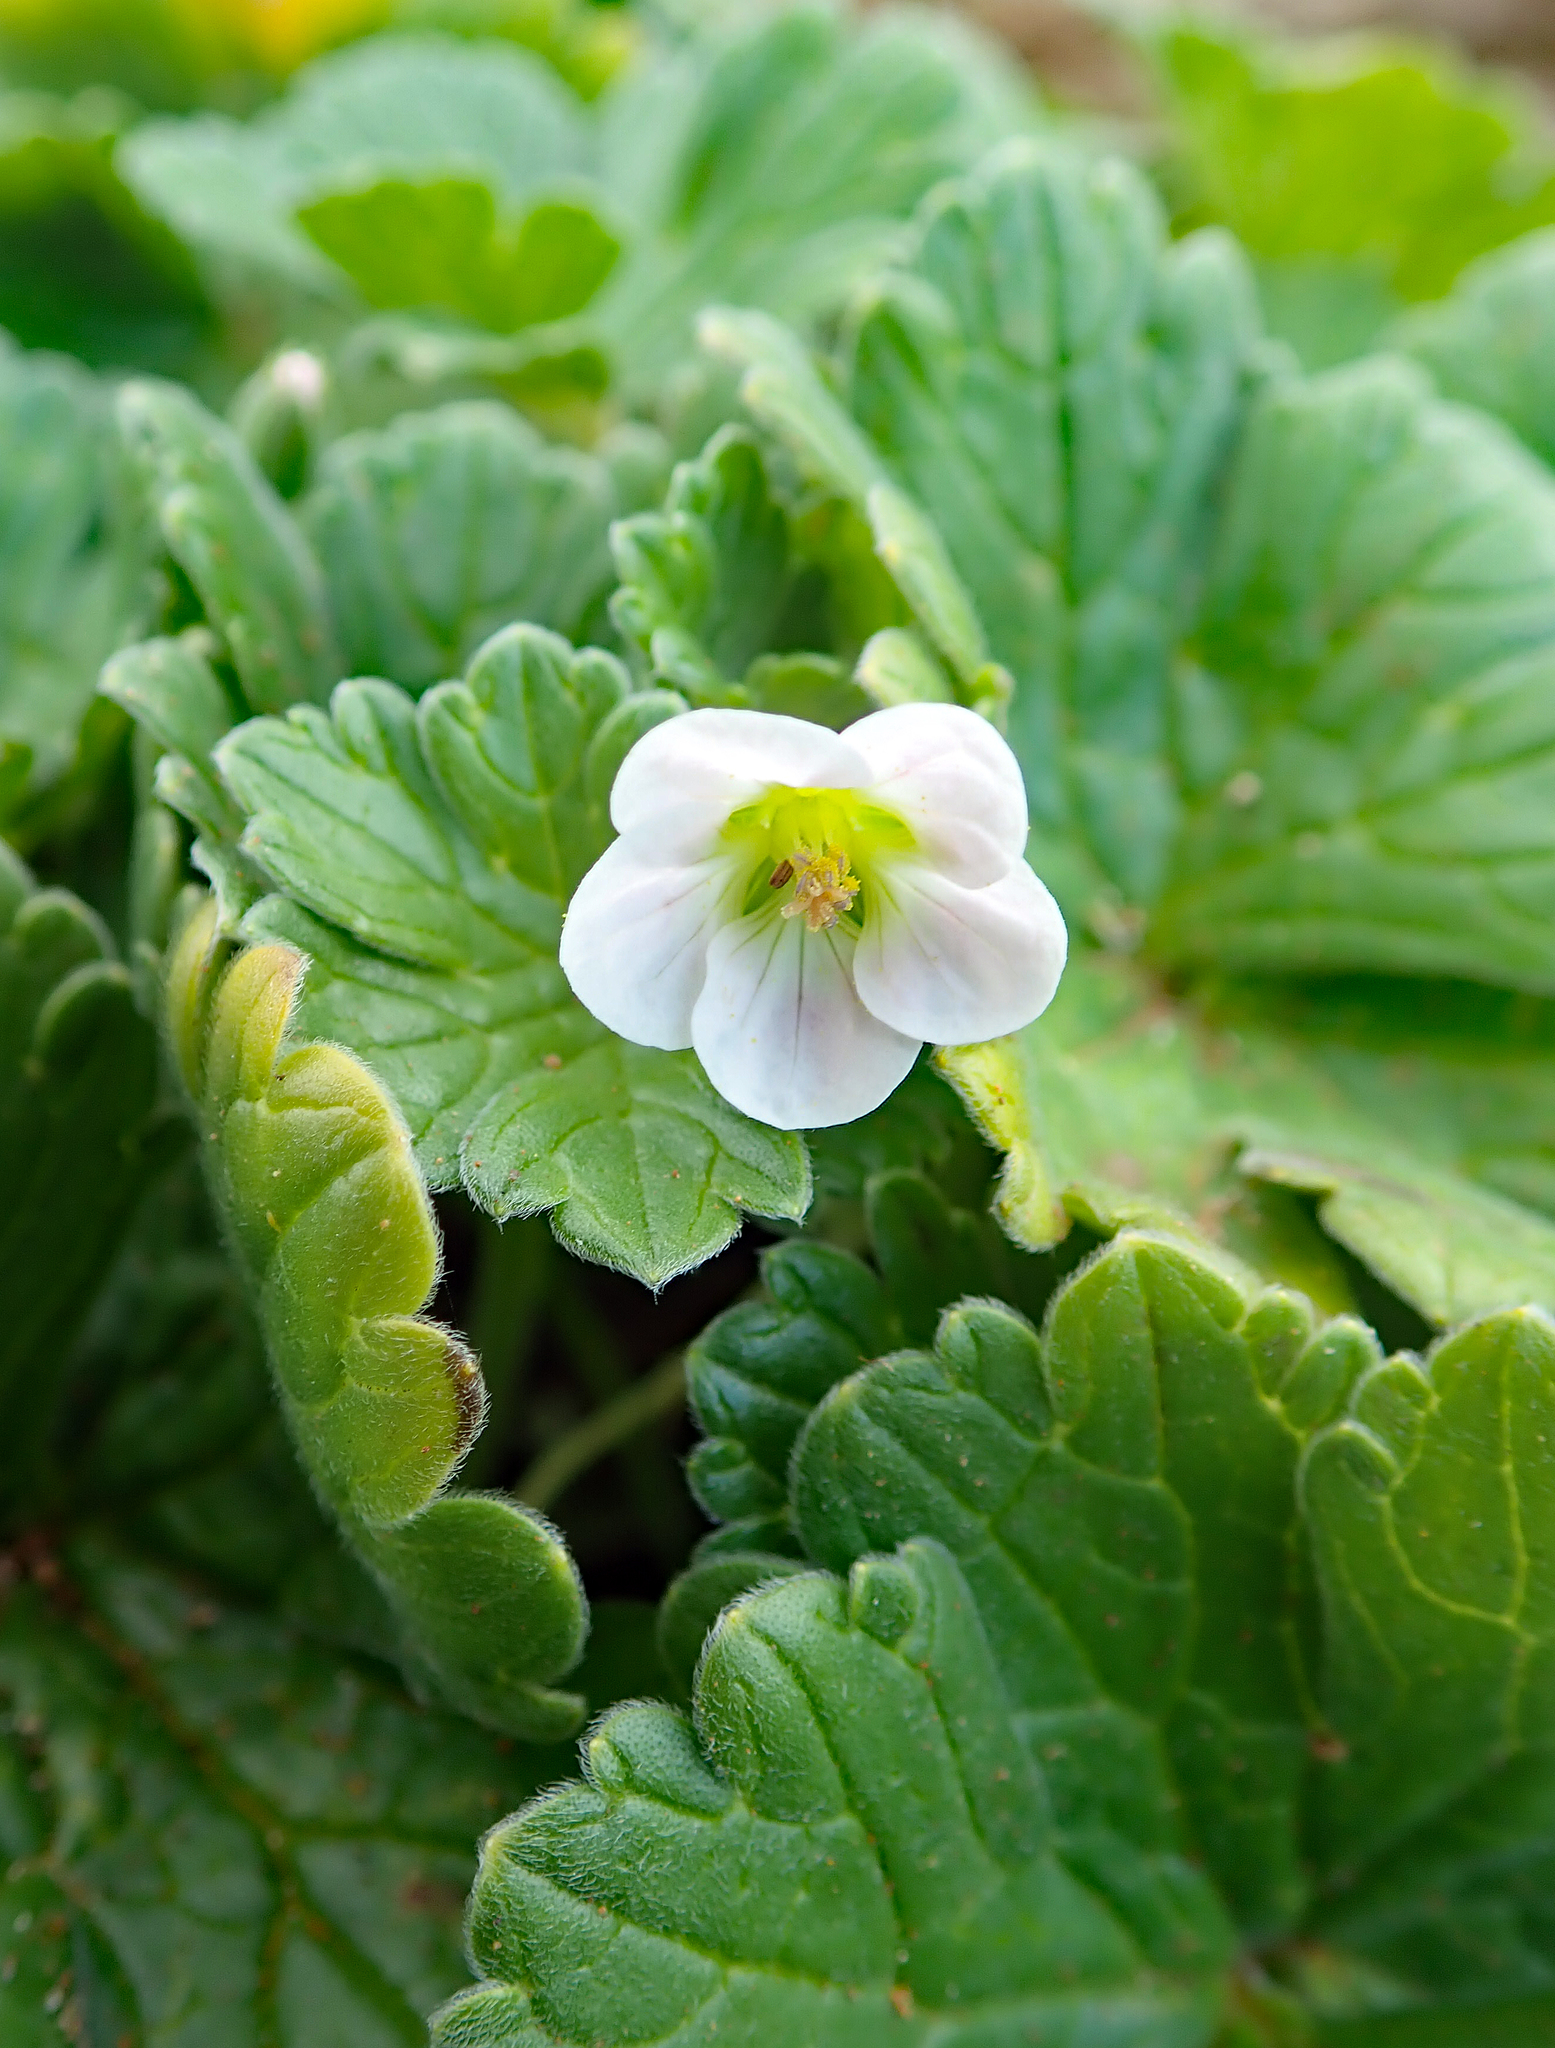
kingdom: Plantae
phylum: Tracheophyta
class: Magnoliopsida
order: Geraniales
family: Geraniaceae
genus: Geranium
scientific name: Geranium traversii
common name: Cranesbill
